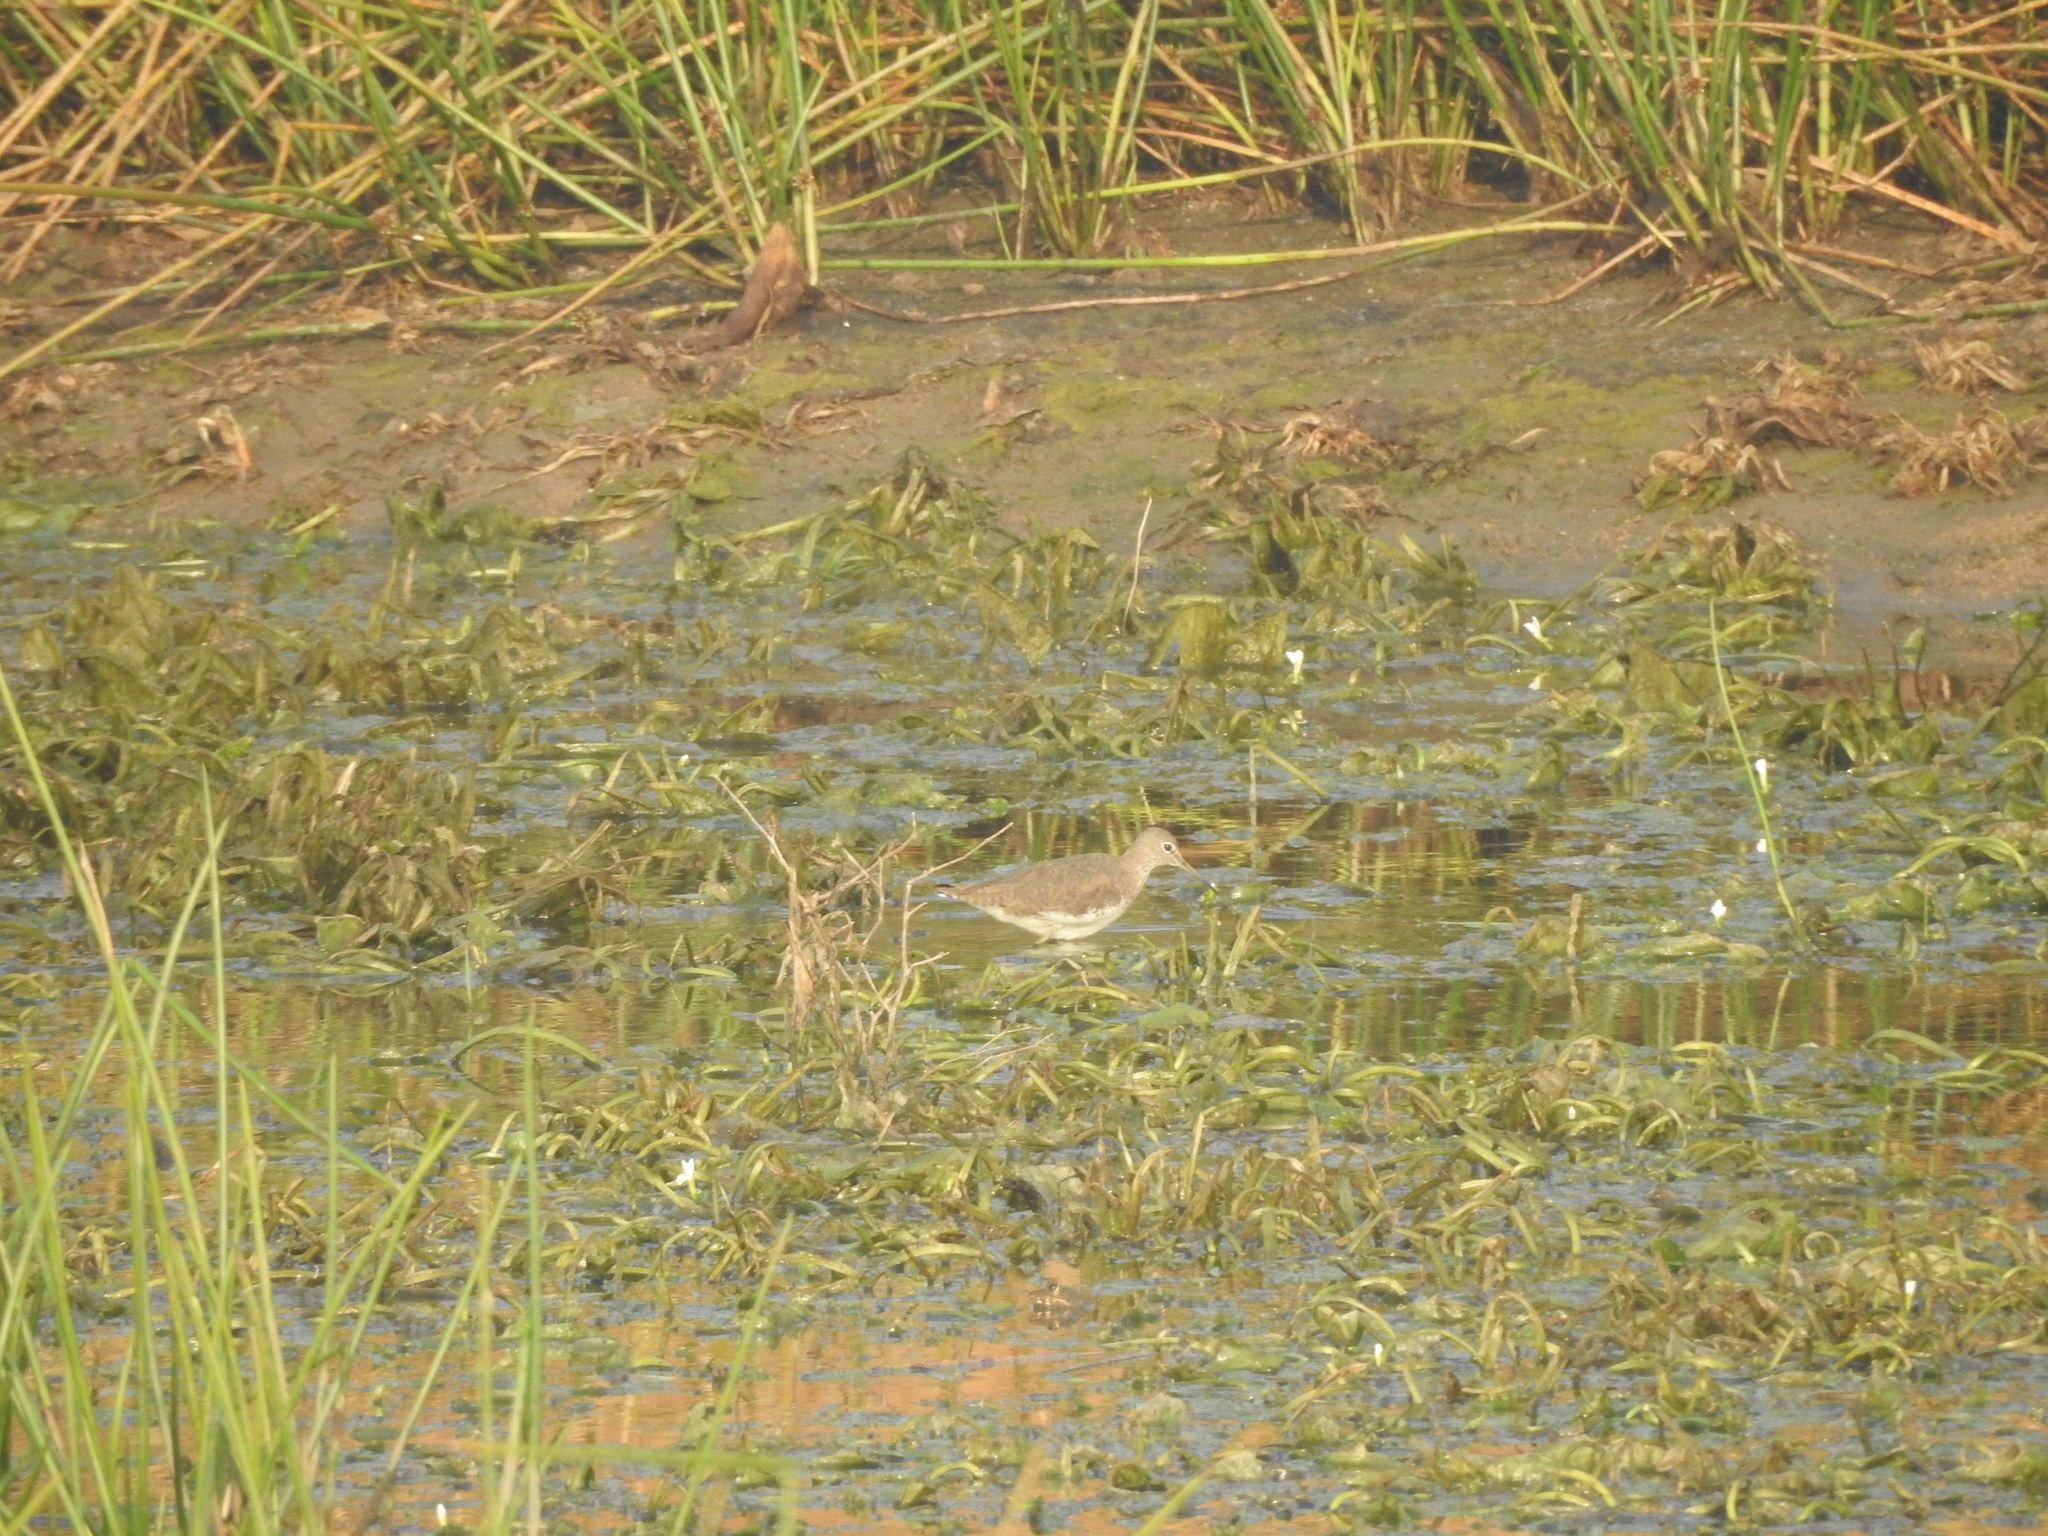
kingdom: Animalia
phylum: Chordata
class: Aves
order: Charadriiformes
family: Scolopacidae
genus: Tringa
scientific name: Tringa ochropus
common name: Green sandpiper
